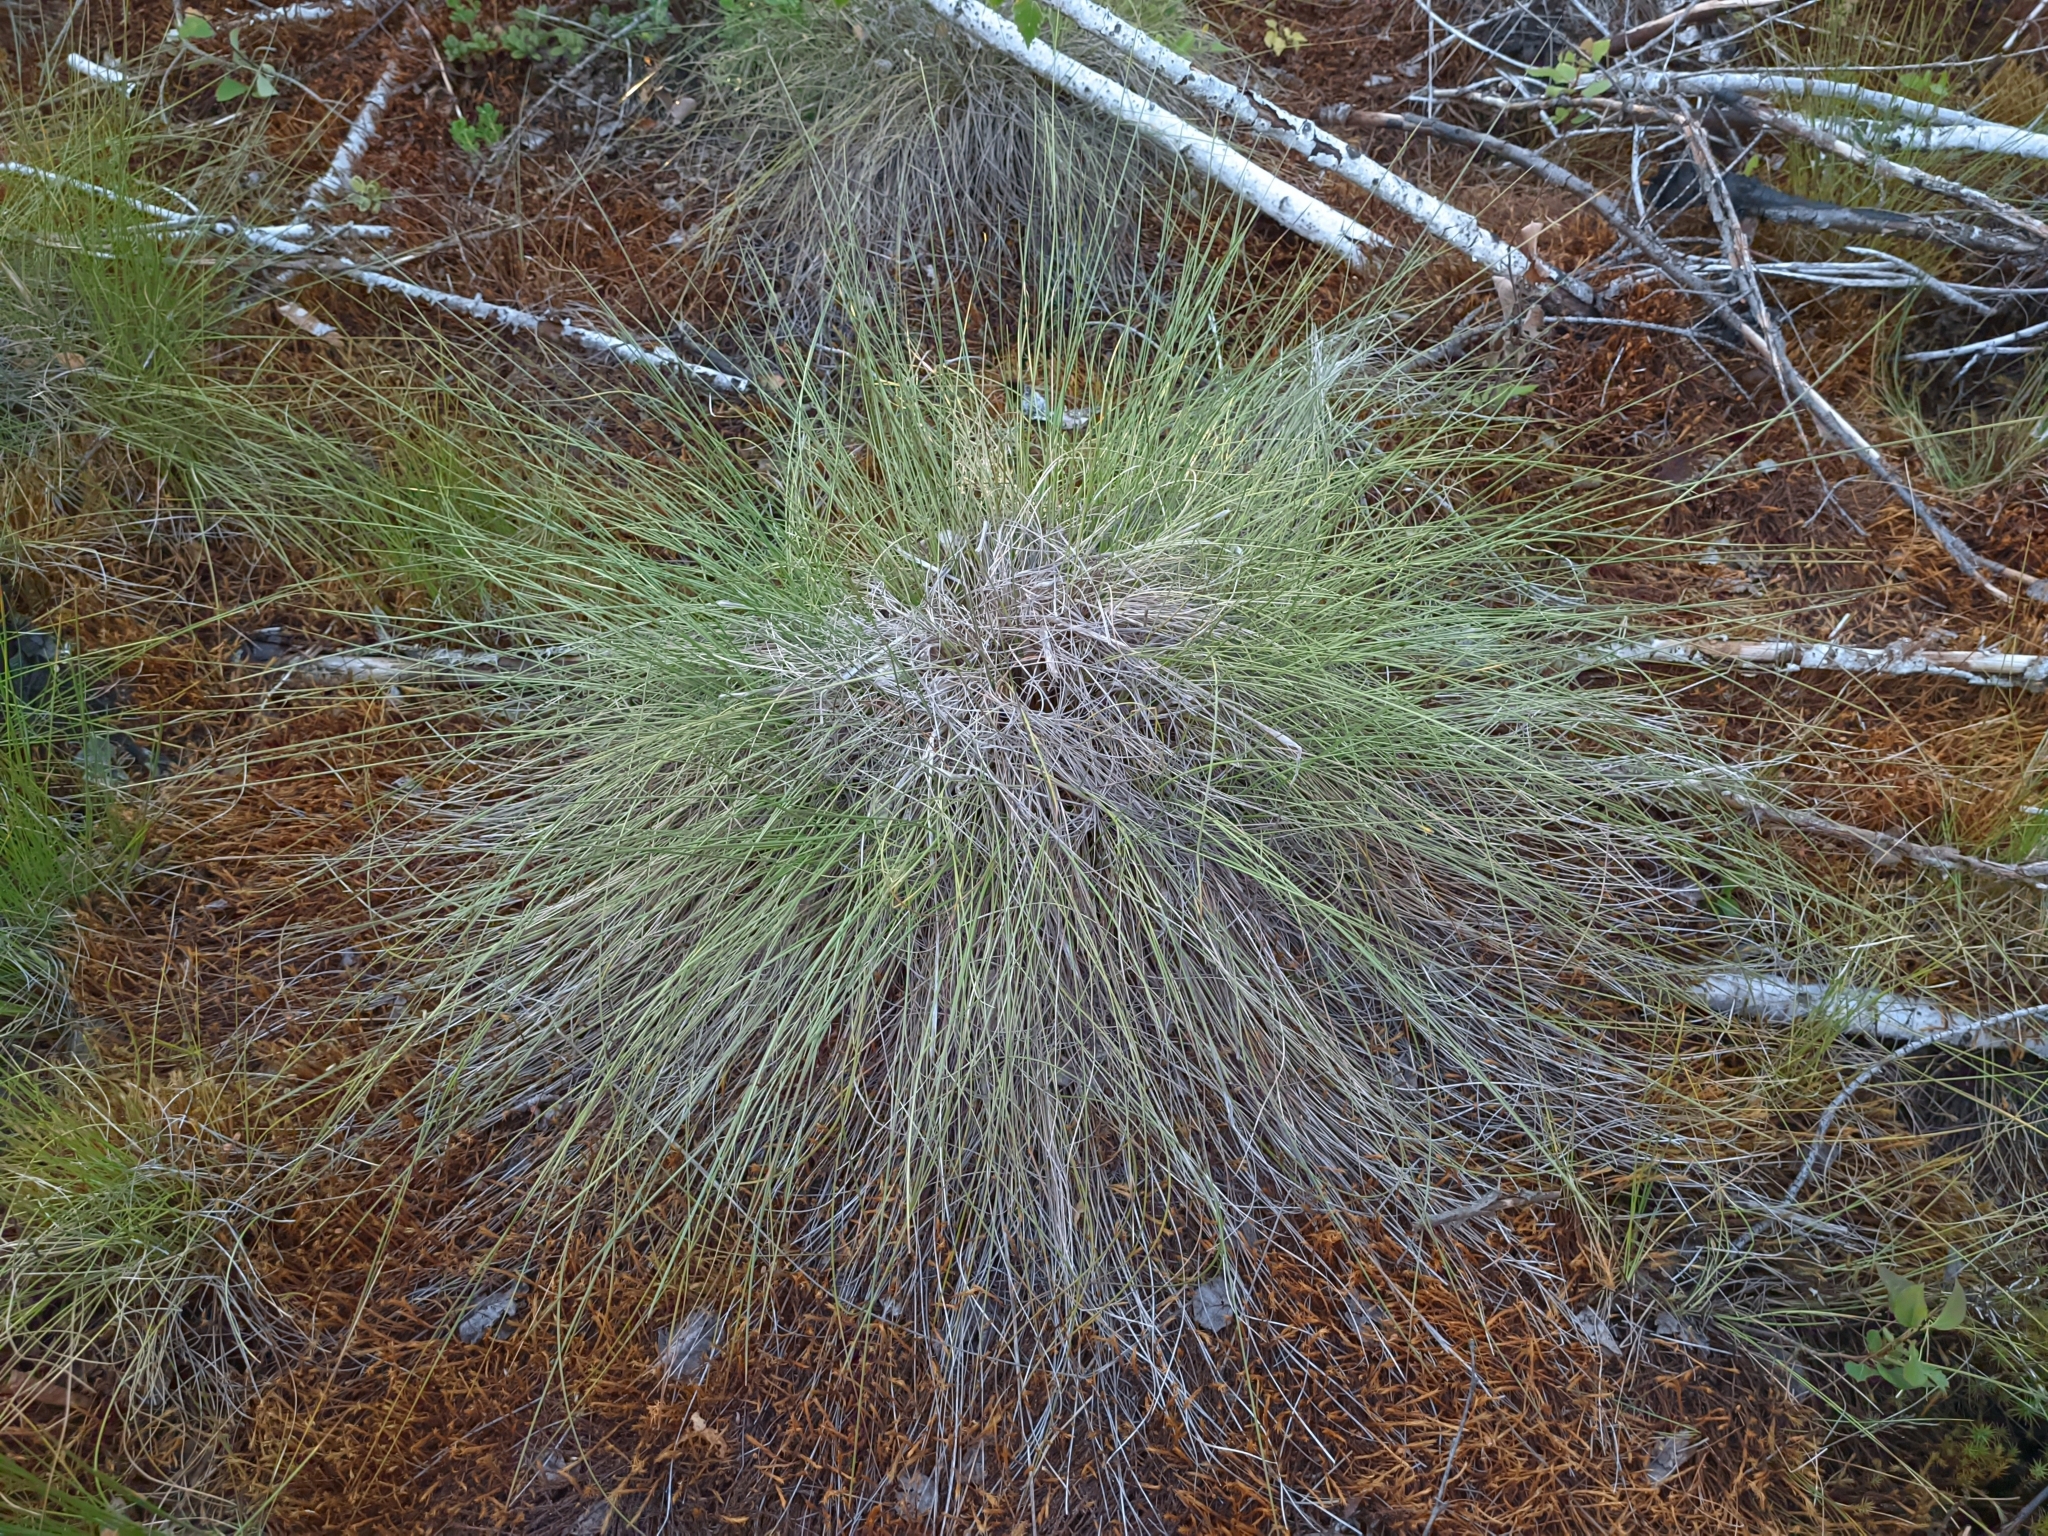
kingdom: Plantae
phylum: Tracheophyta
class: Liliopsida
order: Poales
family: Cyperaceae
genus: Eriophorum
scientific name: Eriophorum vaginatum
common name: Hare's-tail cottongrass
